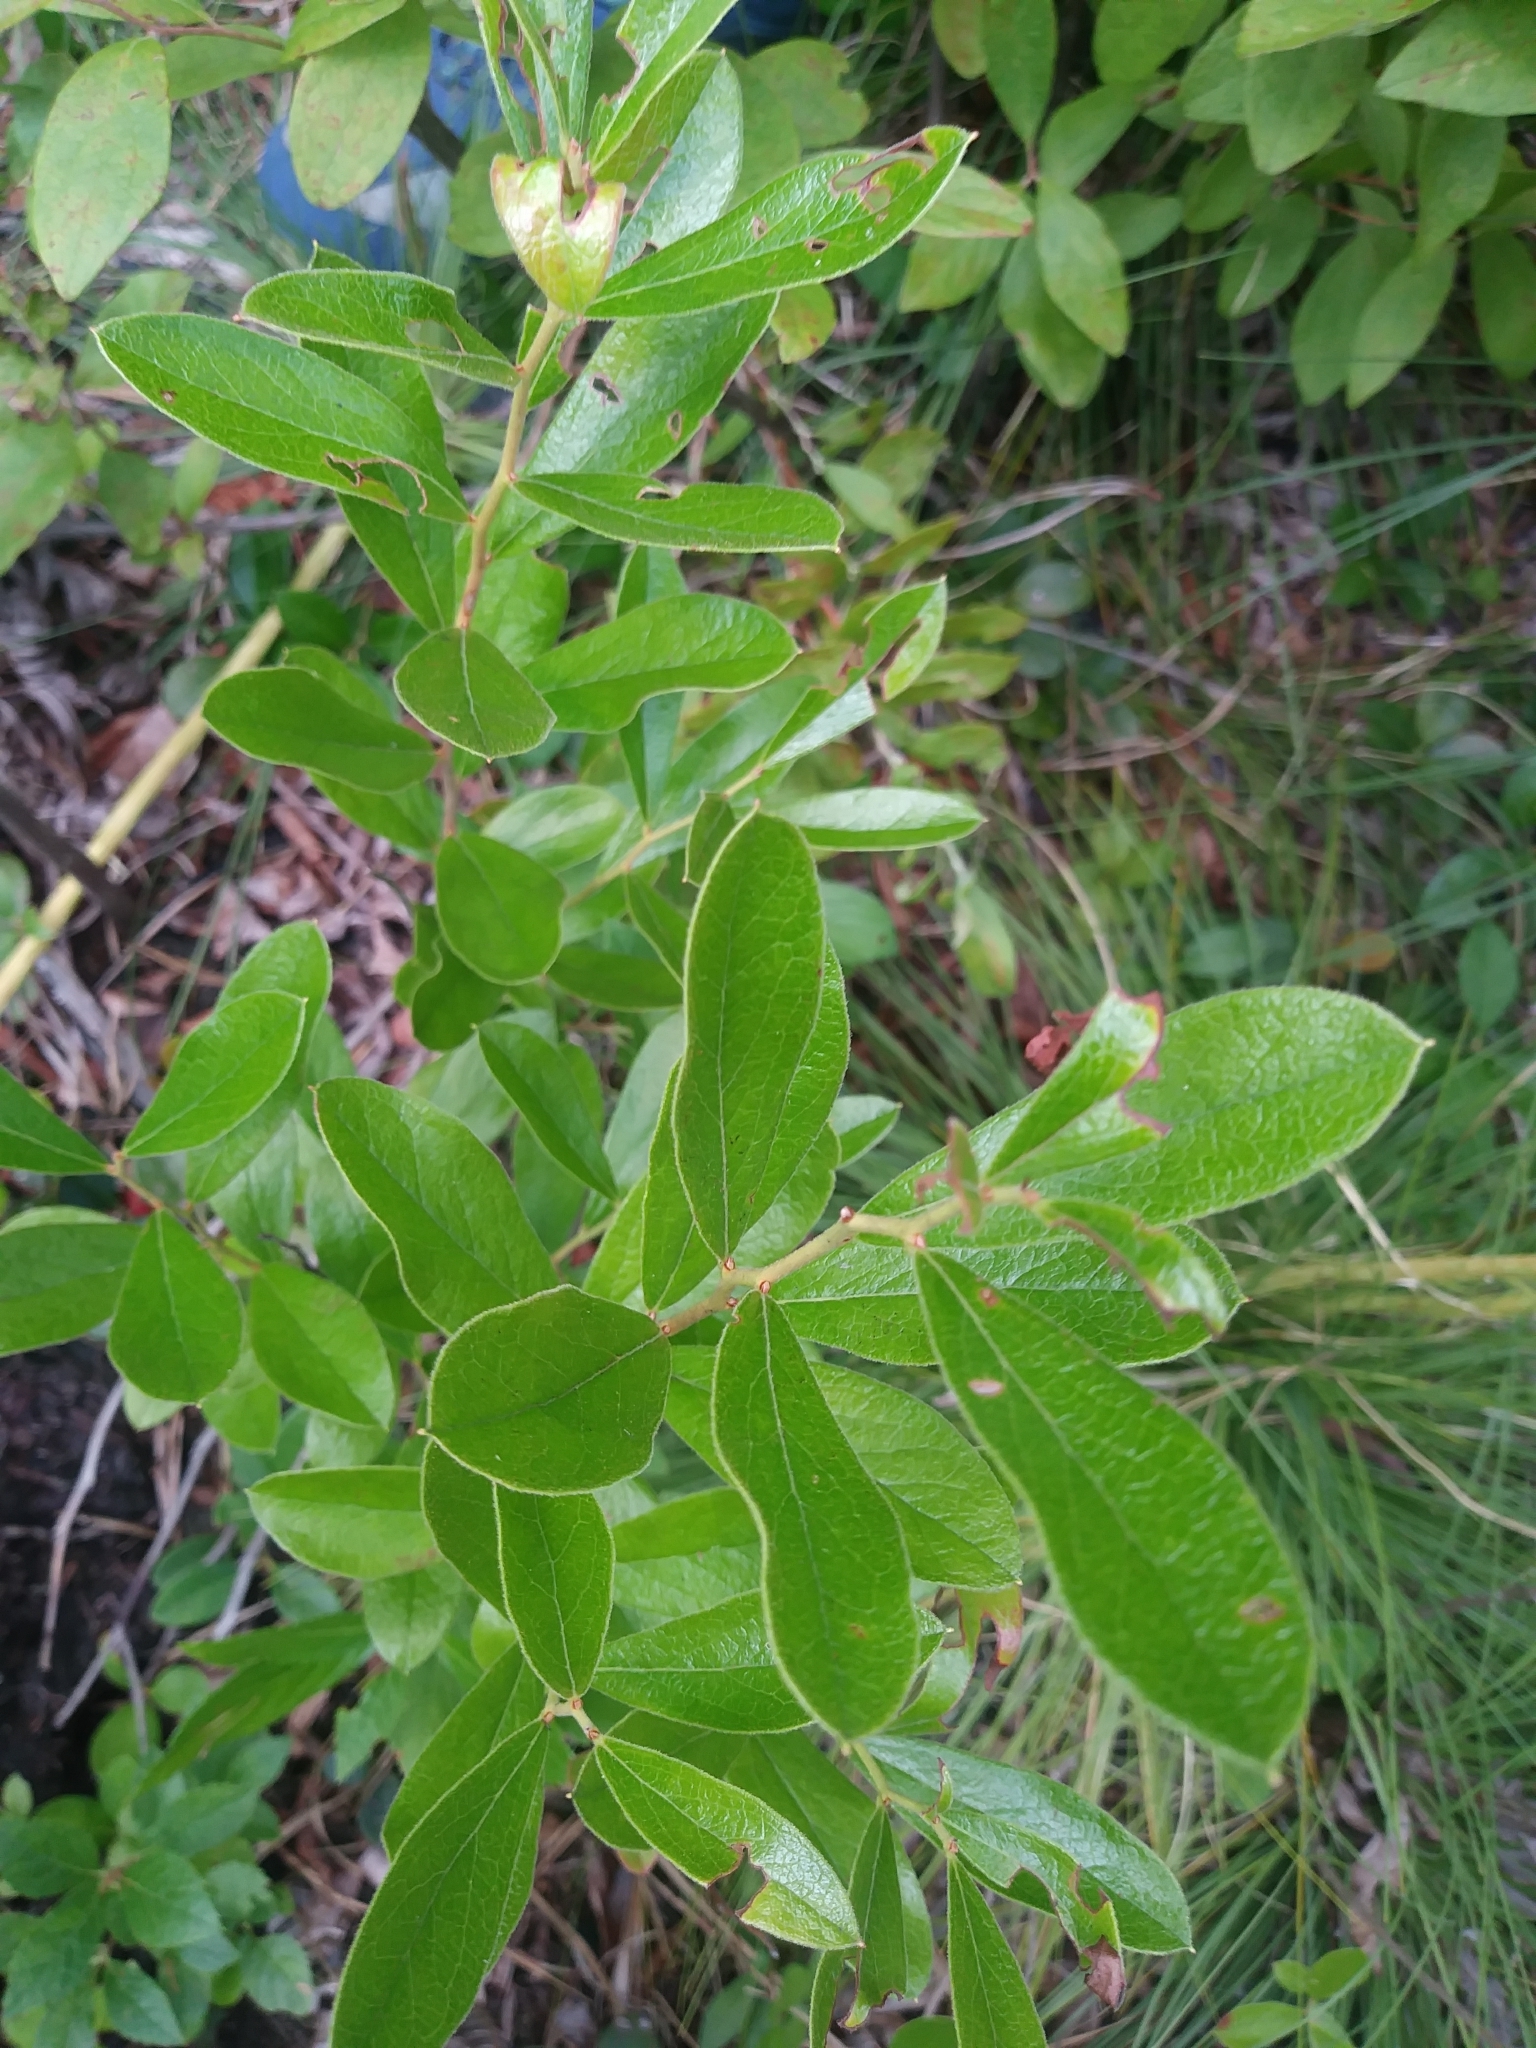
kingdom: Plantae
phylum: Tracheophyta
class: Magnoliopsida
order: Ericales
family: Ericaceae
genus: Gaylussacia
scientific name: Gaylussacia dumosa
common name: Dwarf huckleberry
